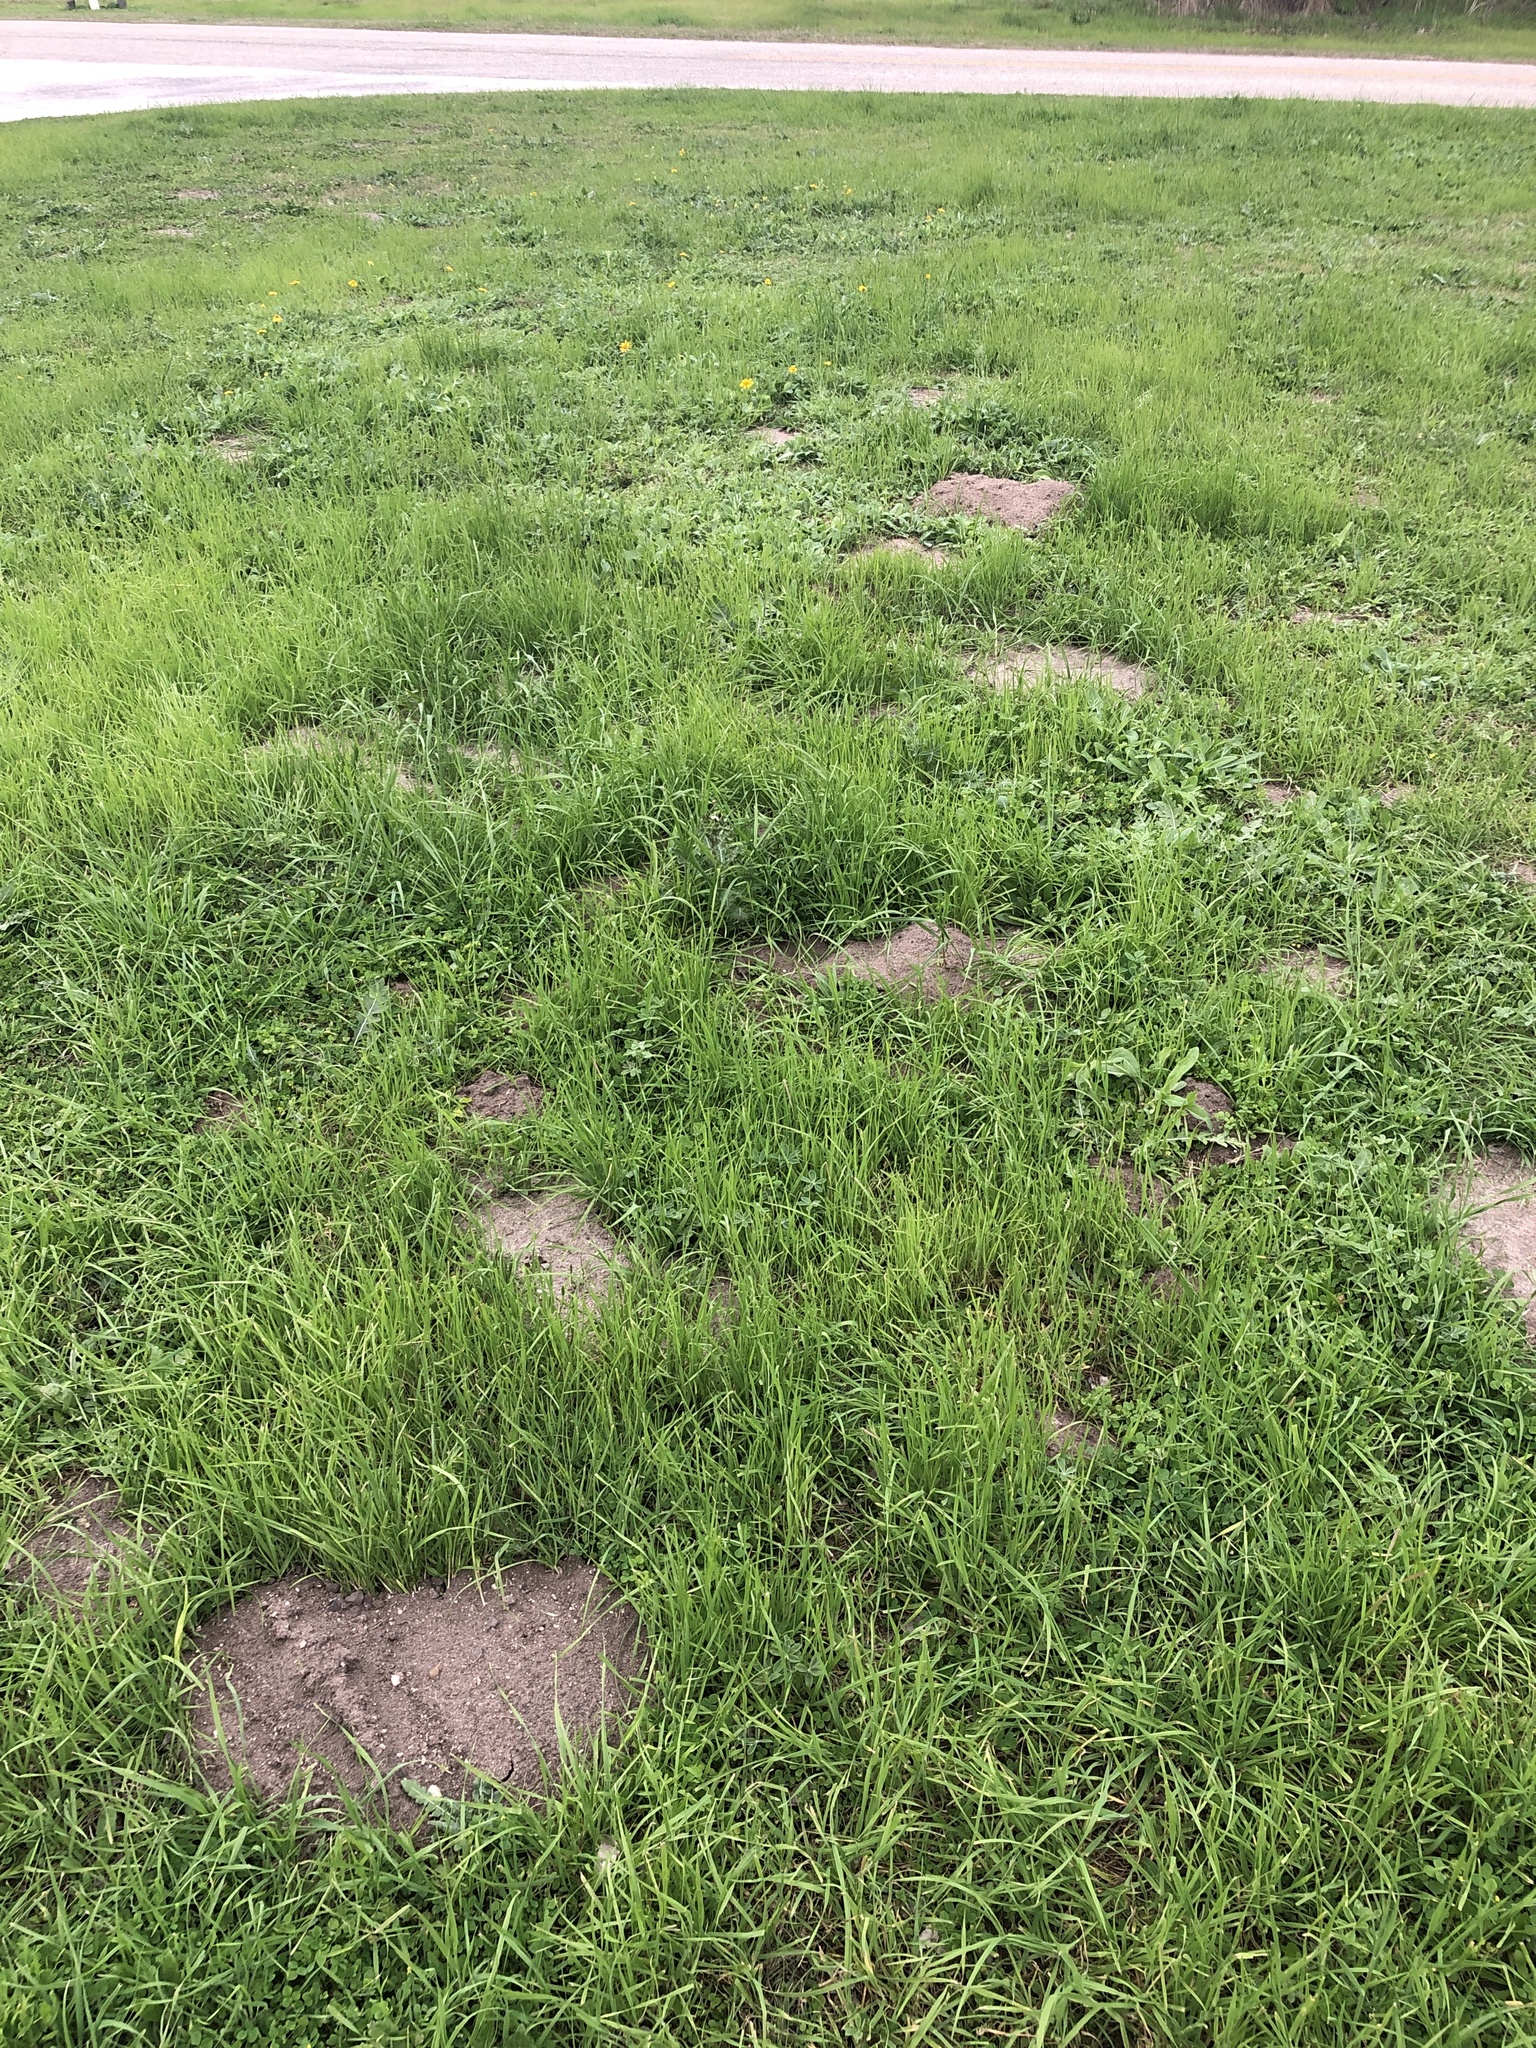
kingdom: Animalia
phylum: Chordata
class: Mammalia
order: Rodentia
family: Geomyidae
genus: Geomys
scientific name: Geomys attwateri
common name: Attwater's pocket gopher
